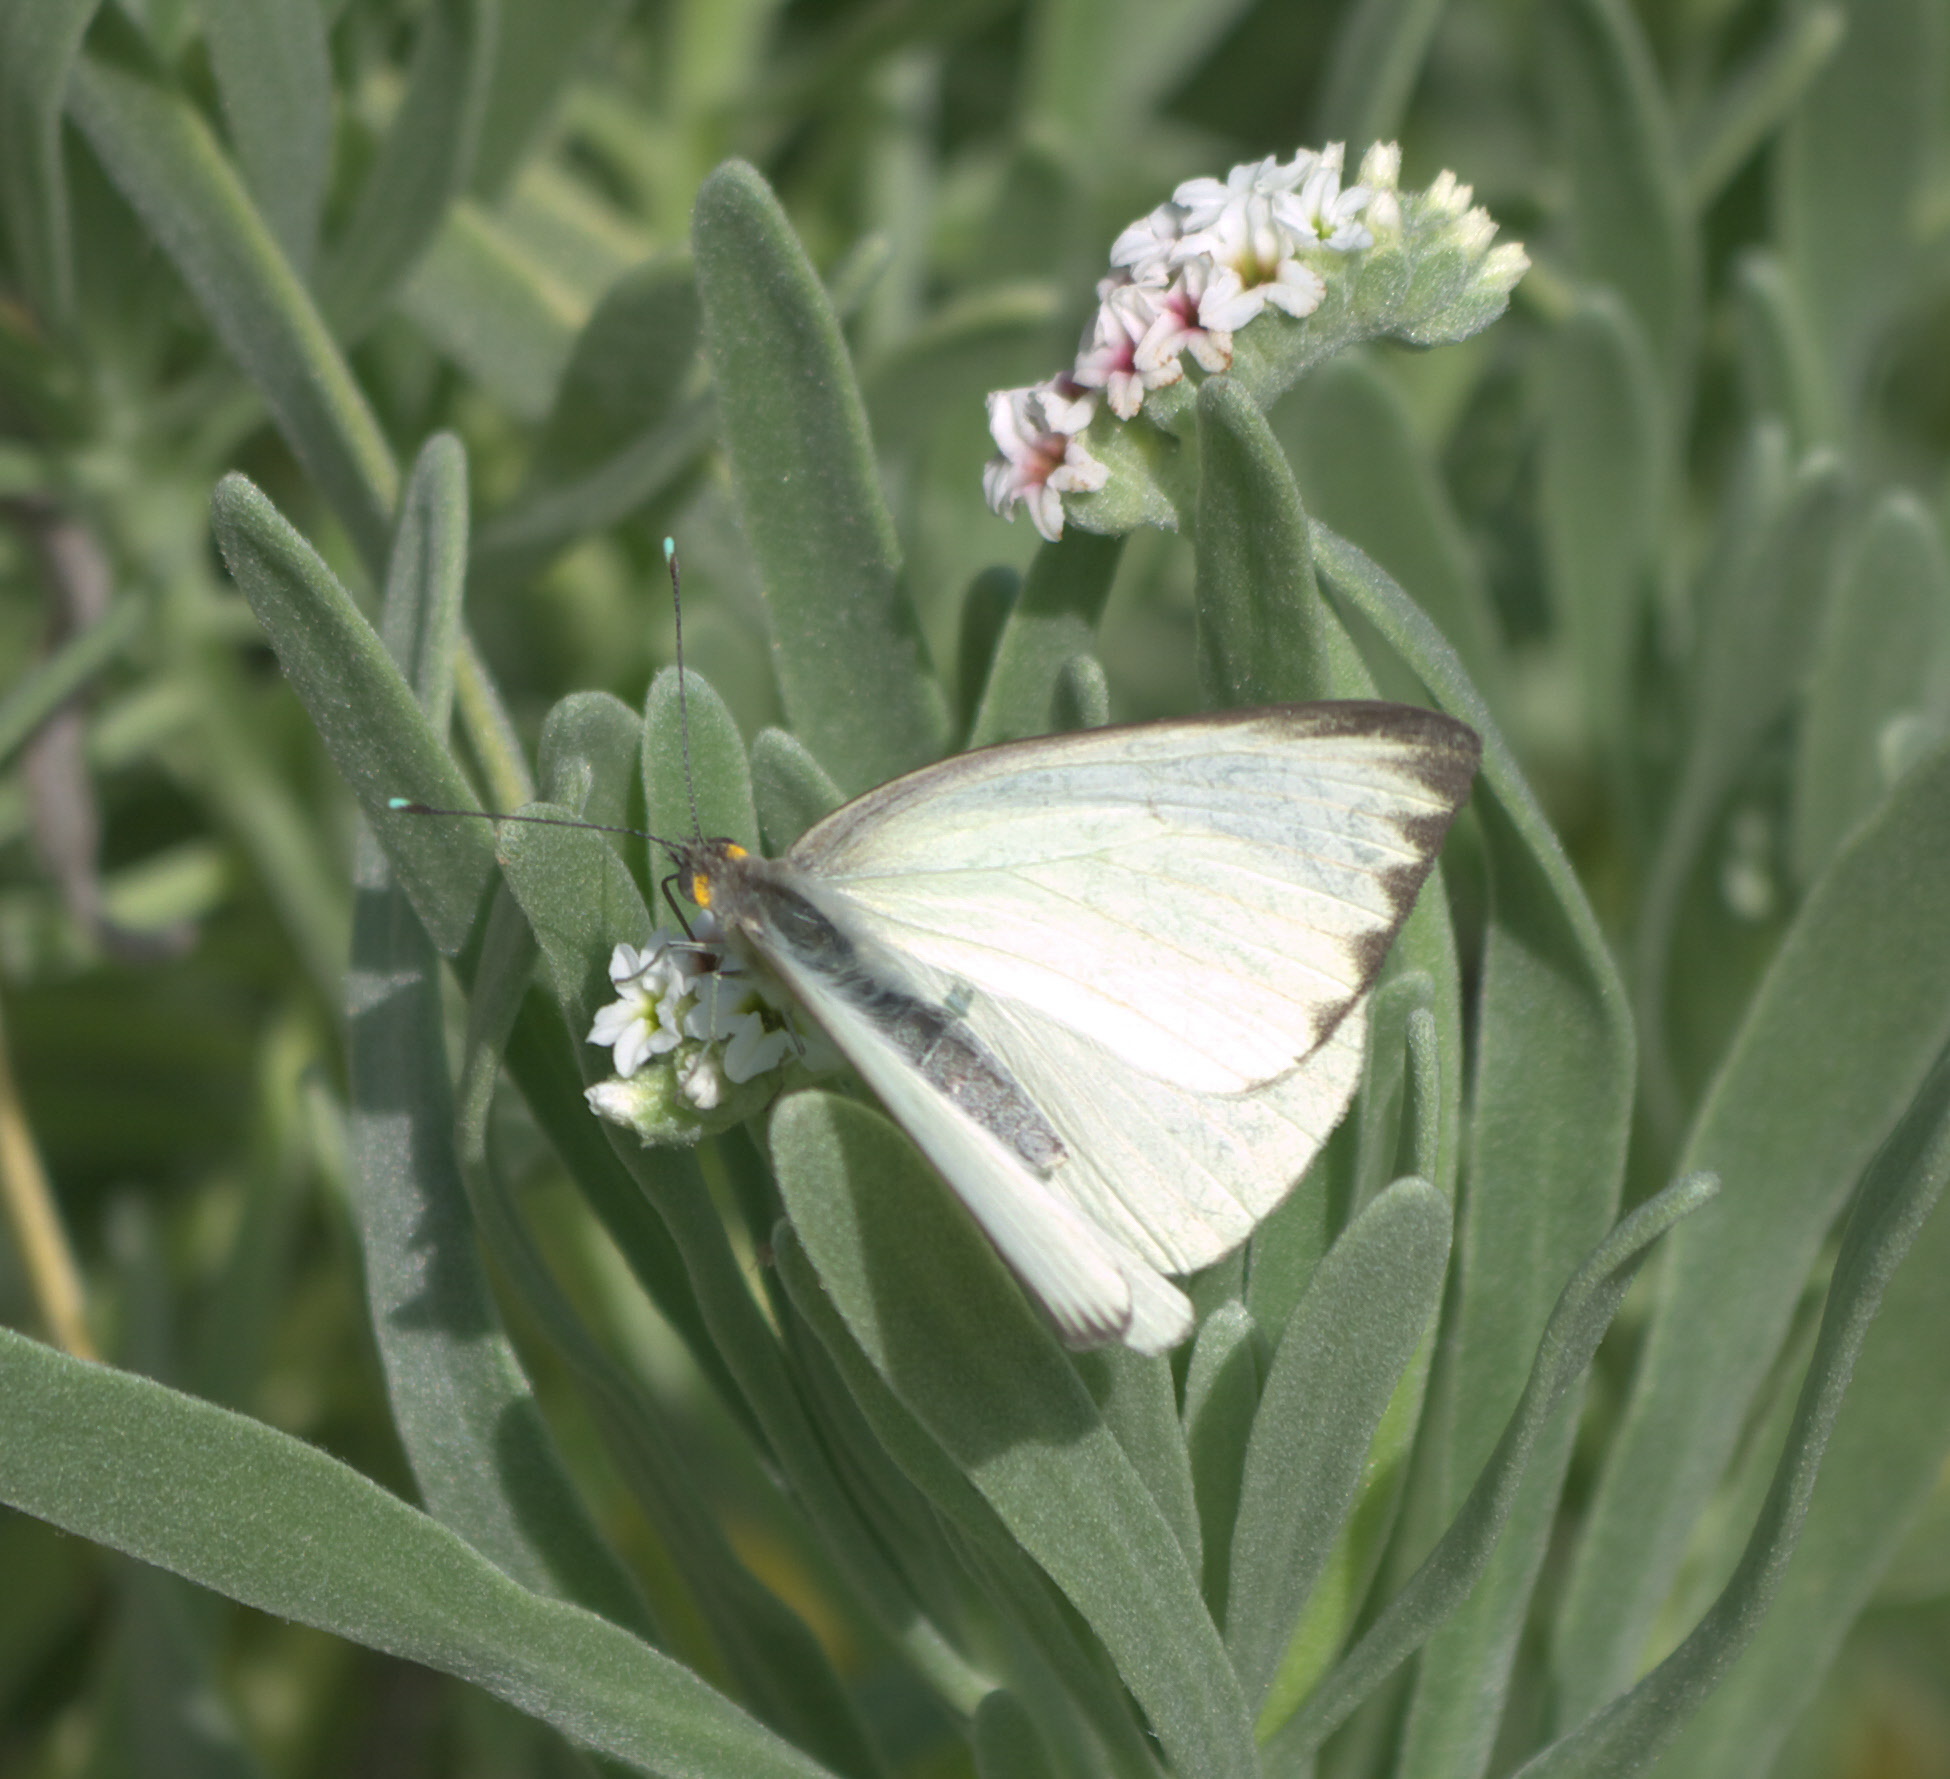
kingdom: Animalia
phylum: Arthropoda
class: Insecta
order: Lepidoptera
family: Pieridae
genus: Ascia
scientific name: Ascia monuste
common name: Great southern white
